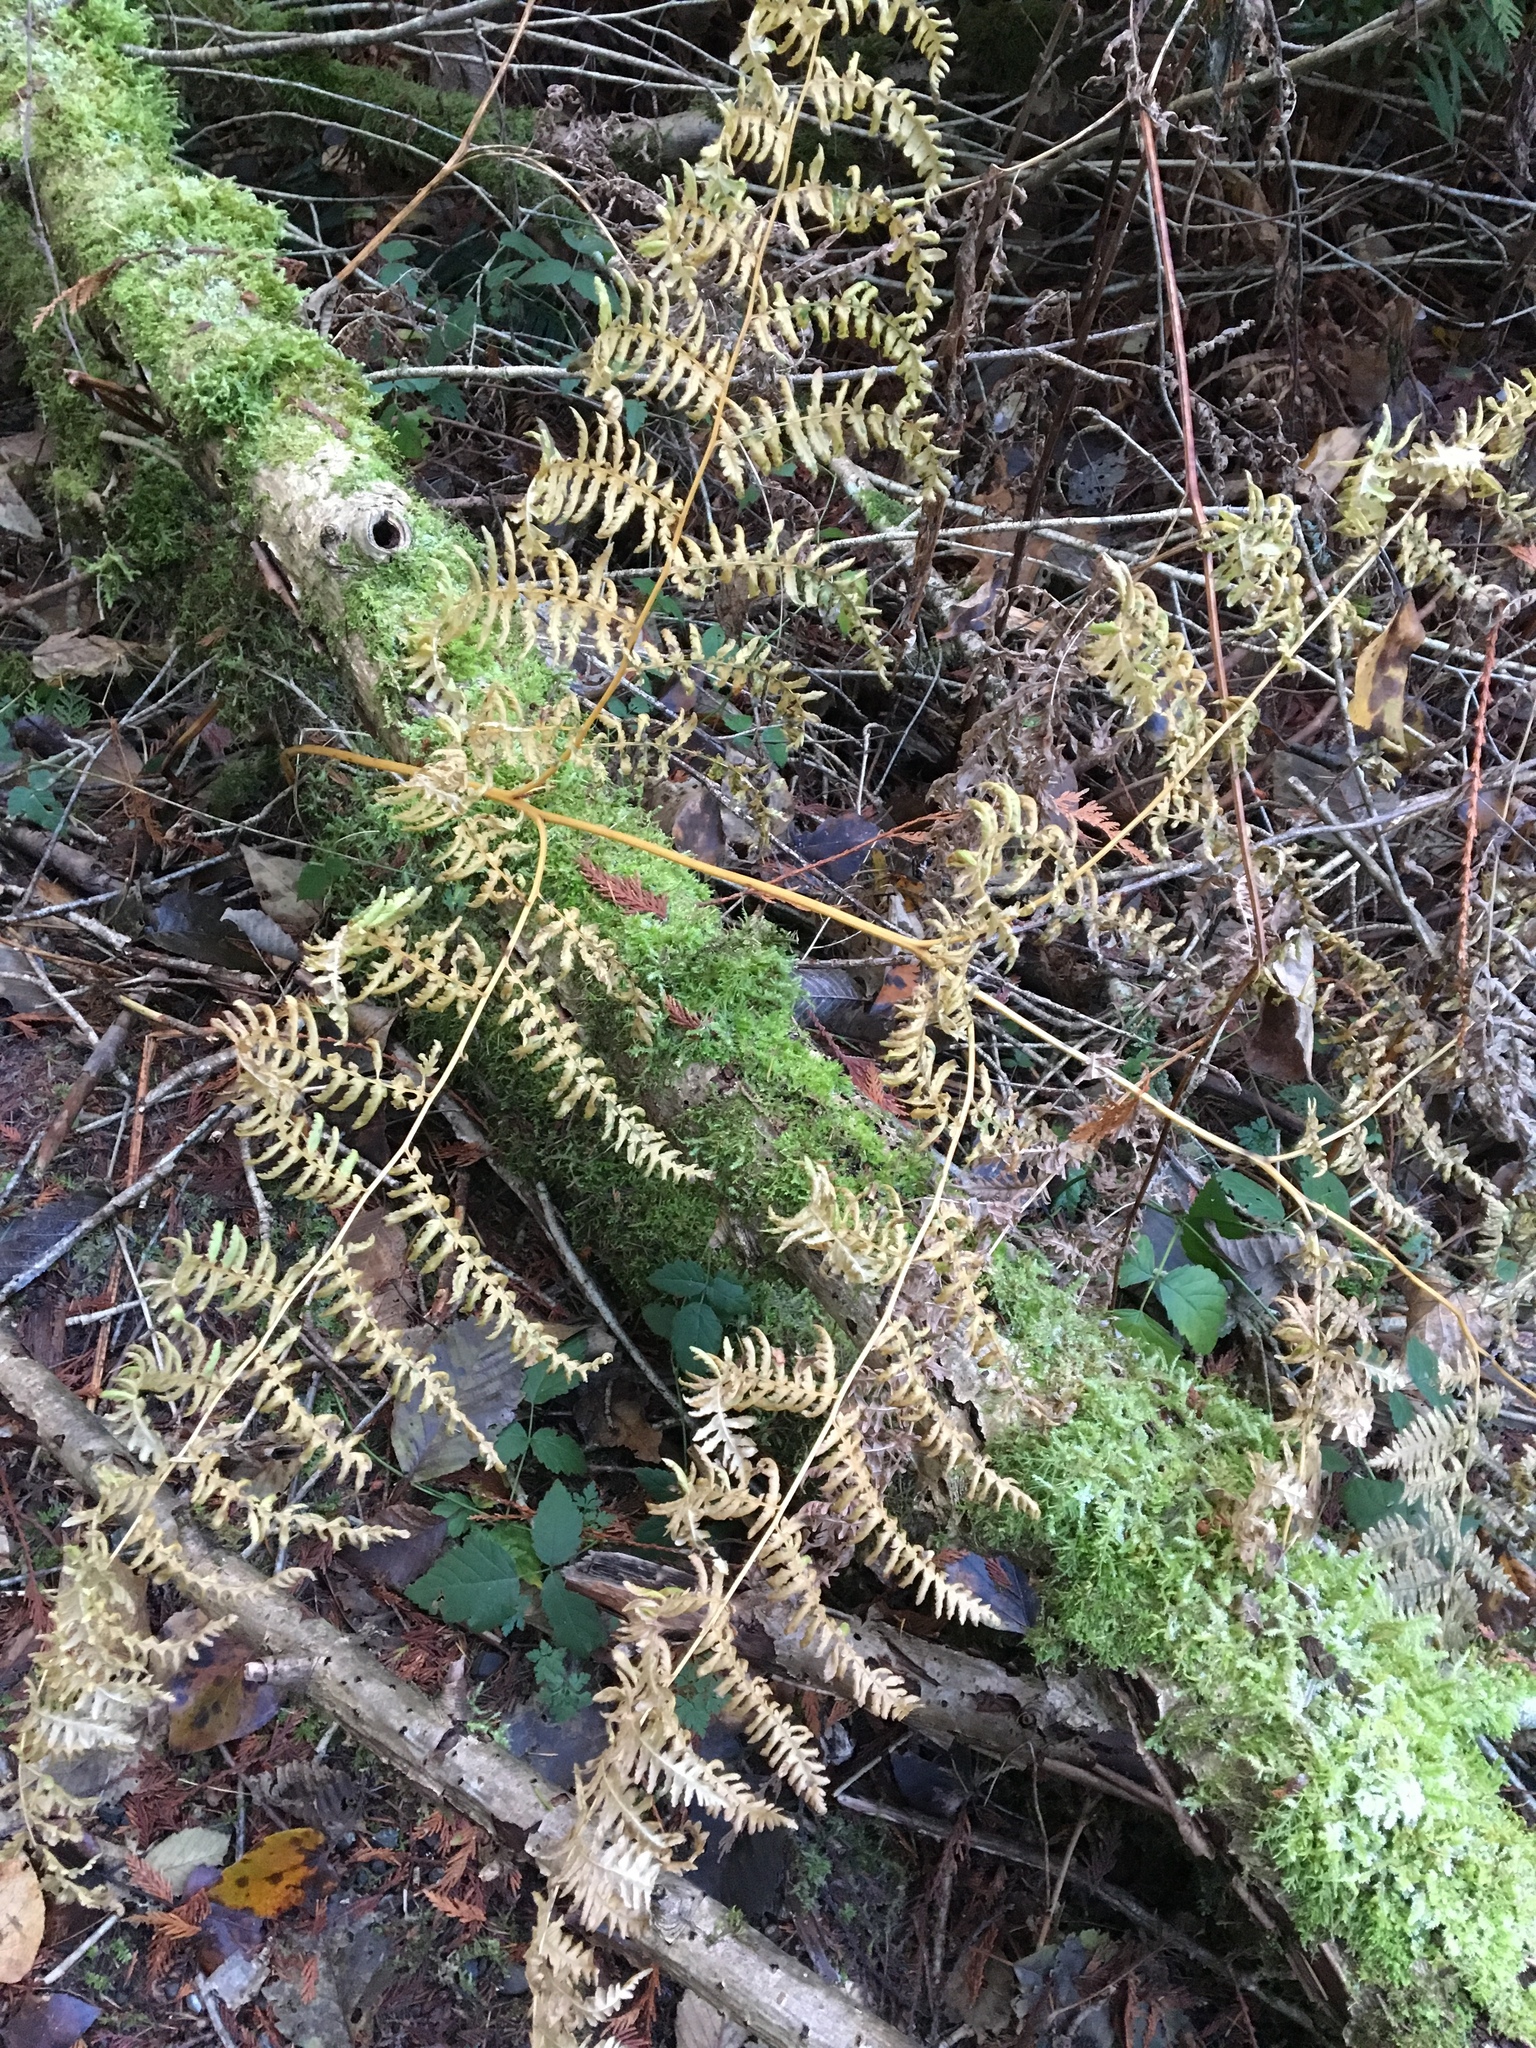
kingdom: Plantae
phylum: Tracheophyta
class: Polypodiopsida
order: Polypodiales
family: Dennstaedtiaceae
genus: Pteridium
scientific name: Pteridium aquilinum
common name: Bracken
